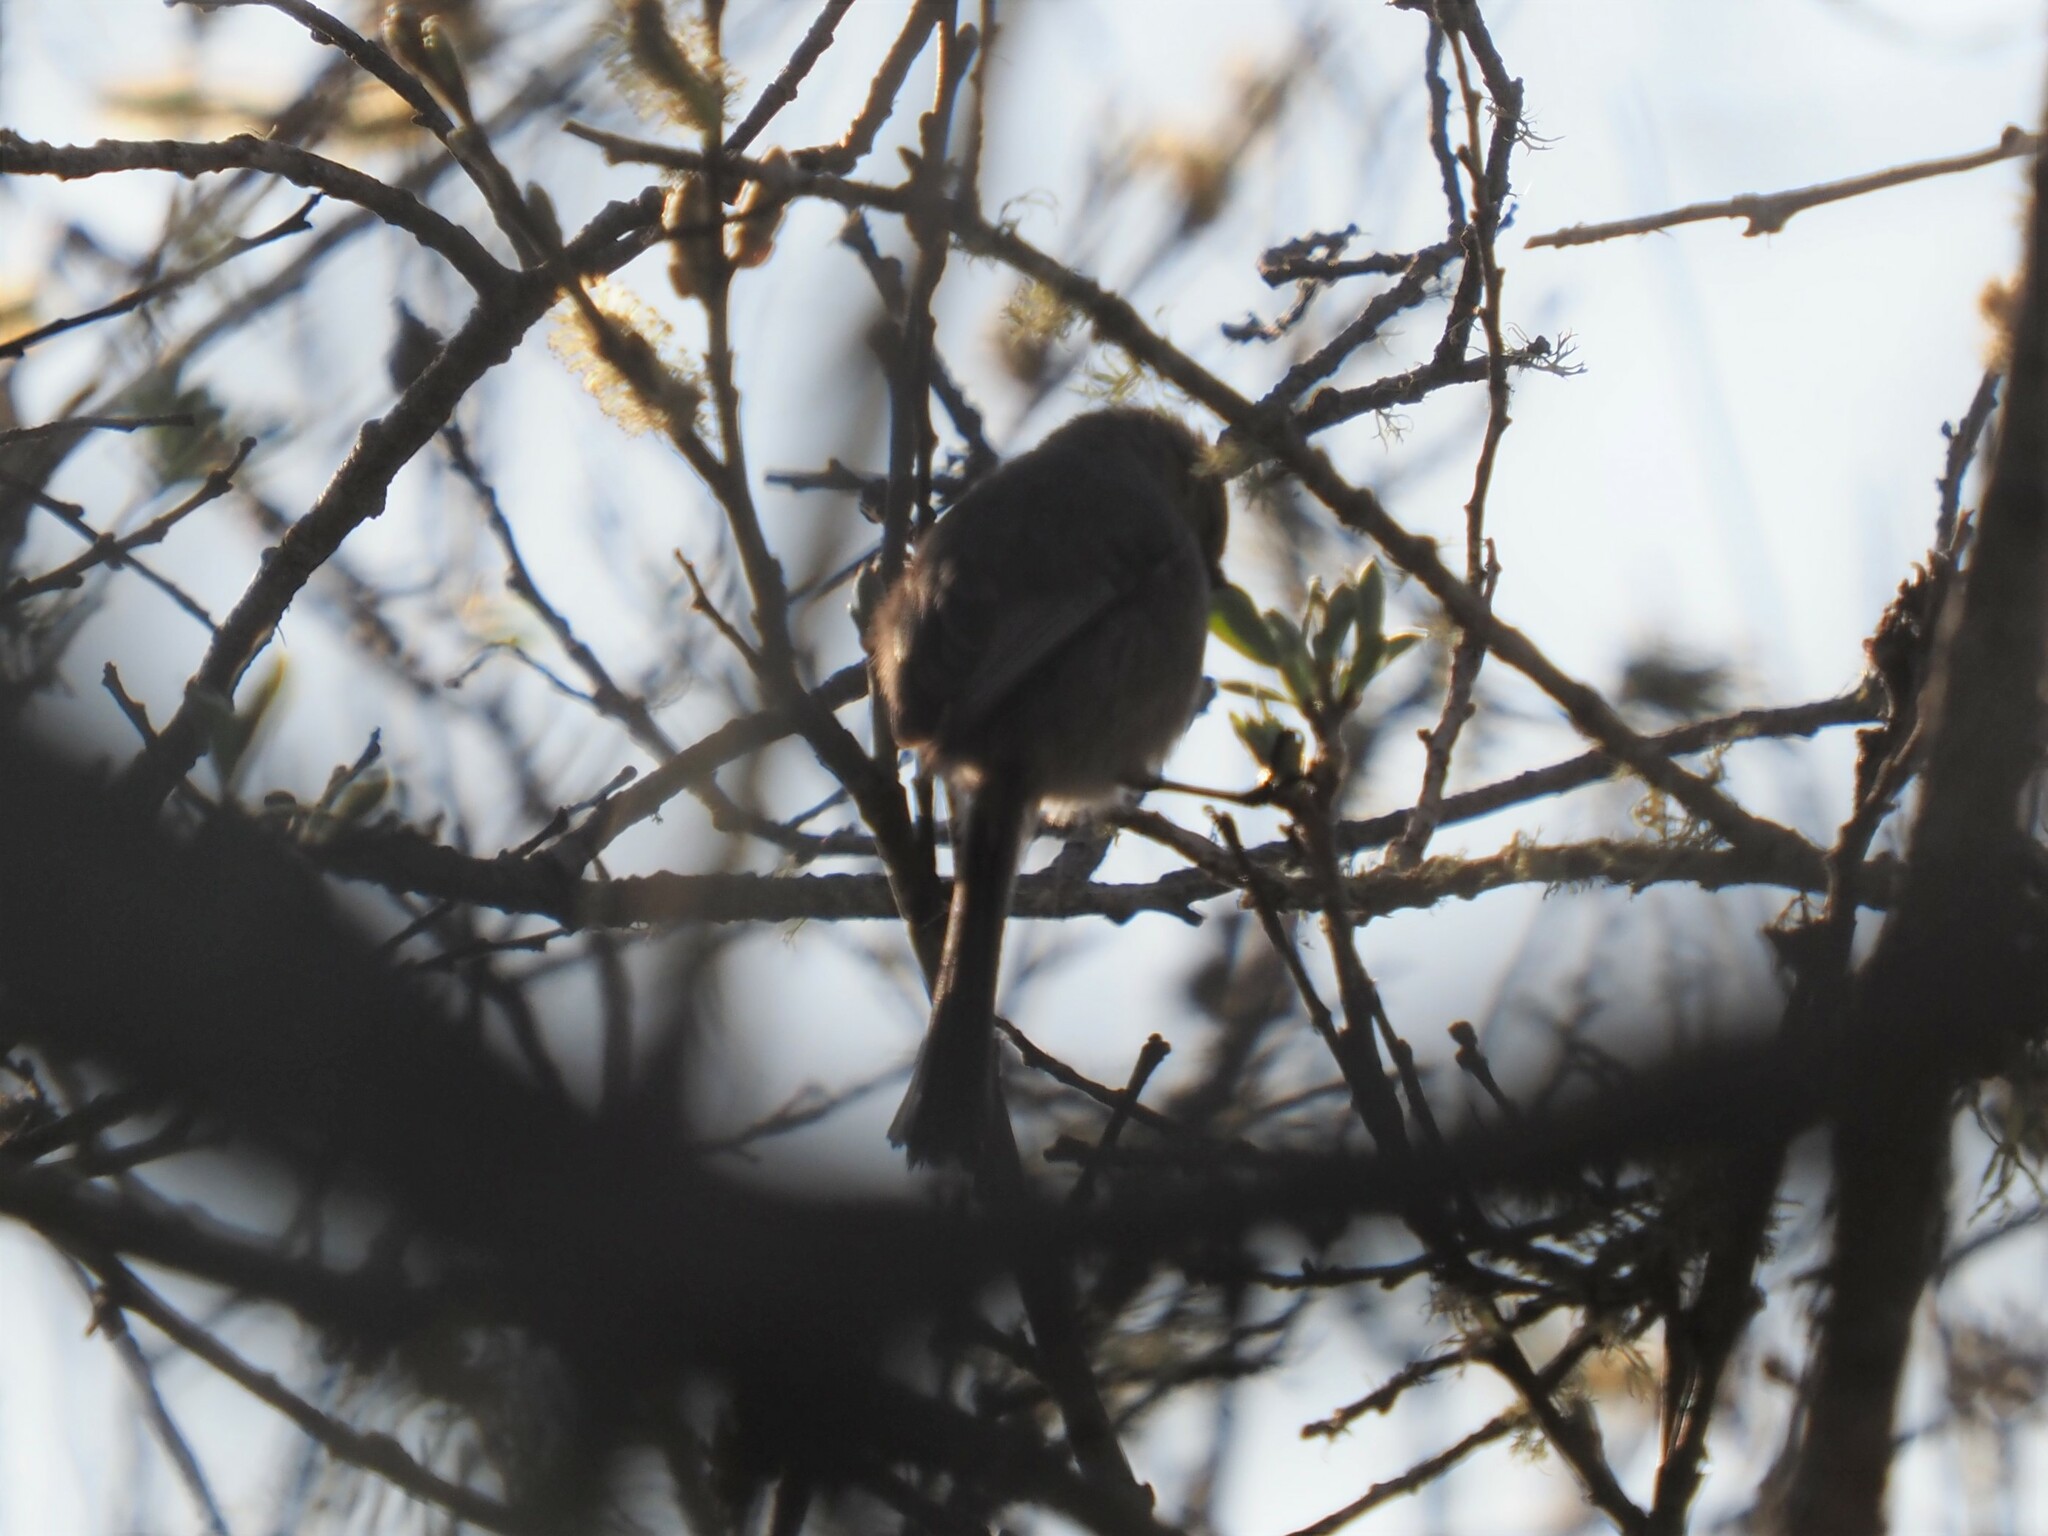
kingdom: Animalia
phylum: Chordata
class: Aves
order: Passeriformes
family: Aegithalidae
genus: Psaltriparus
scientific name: Psaltriparus minimus
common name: American bushtit
